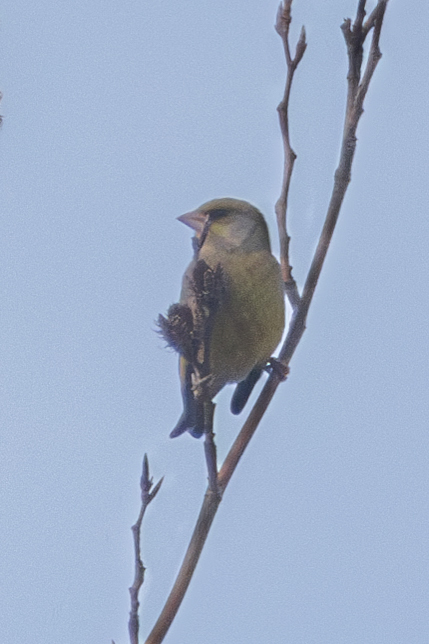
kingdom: Plantae
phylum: Tracheophyta
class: Liliopsida
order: Poales
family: Poaceae
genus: Chloris
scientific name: Chloris chloris
